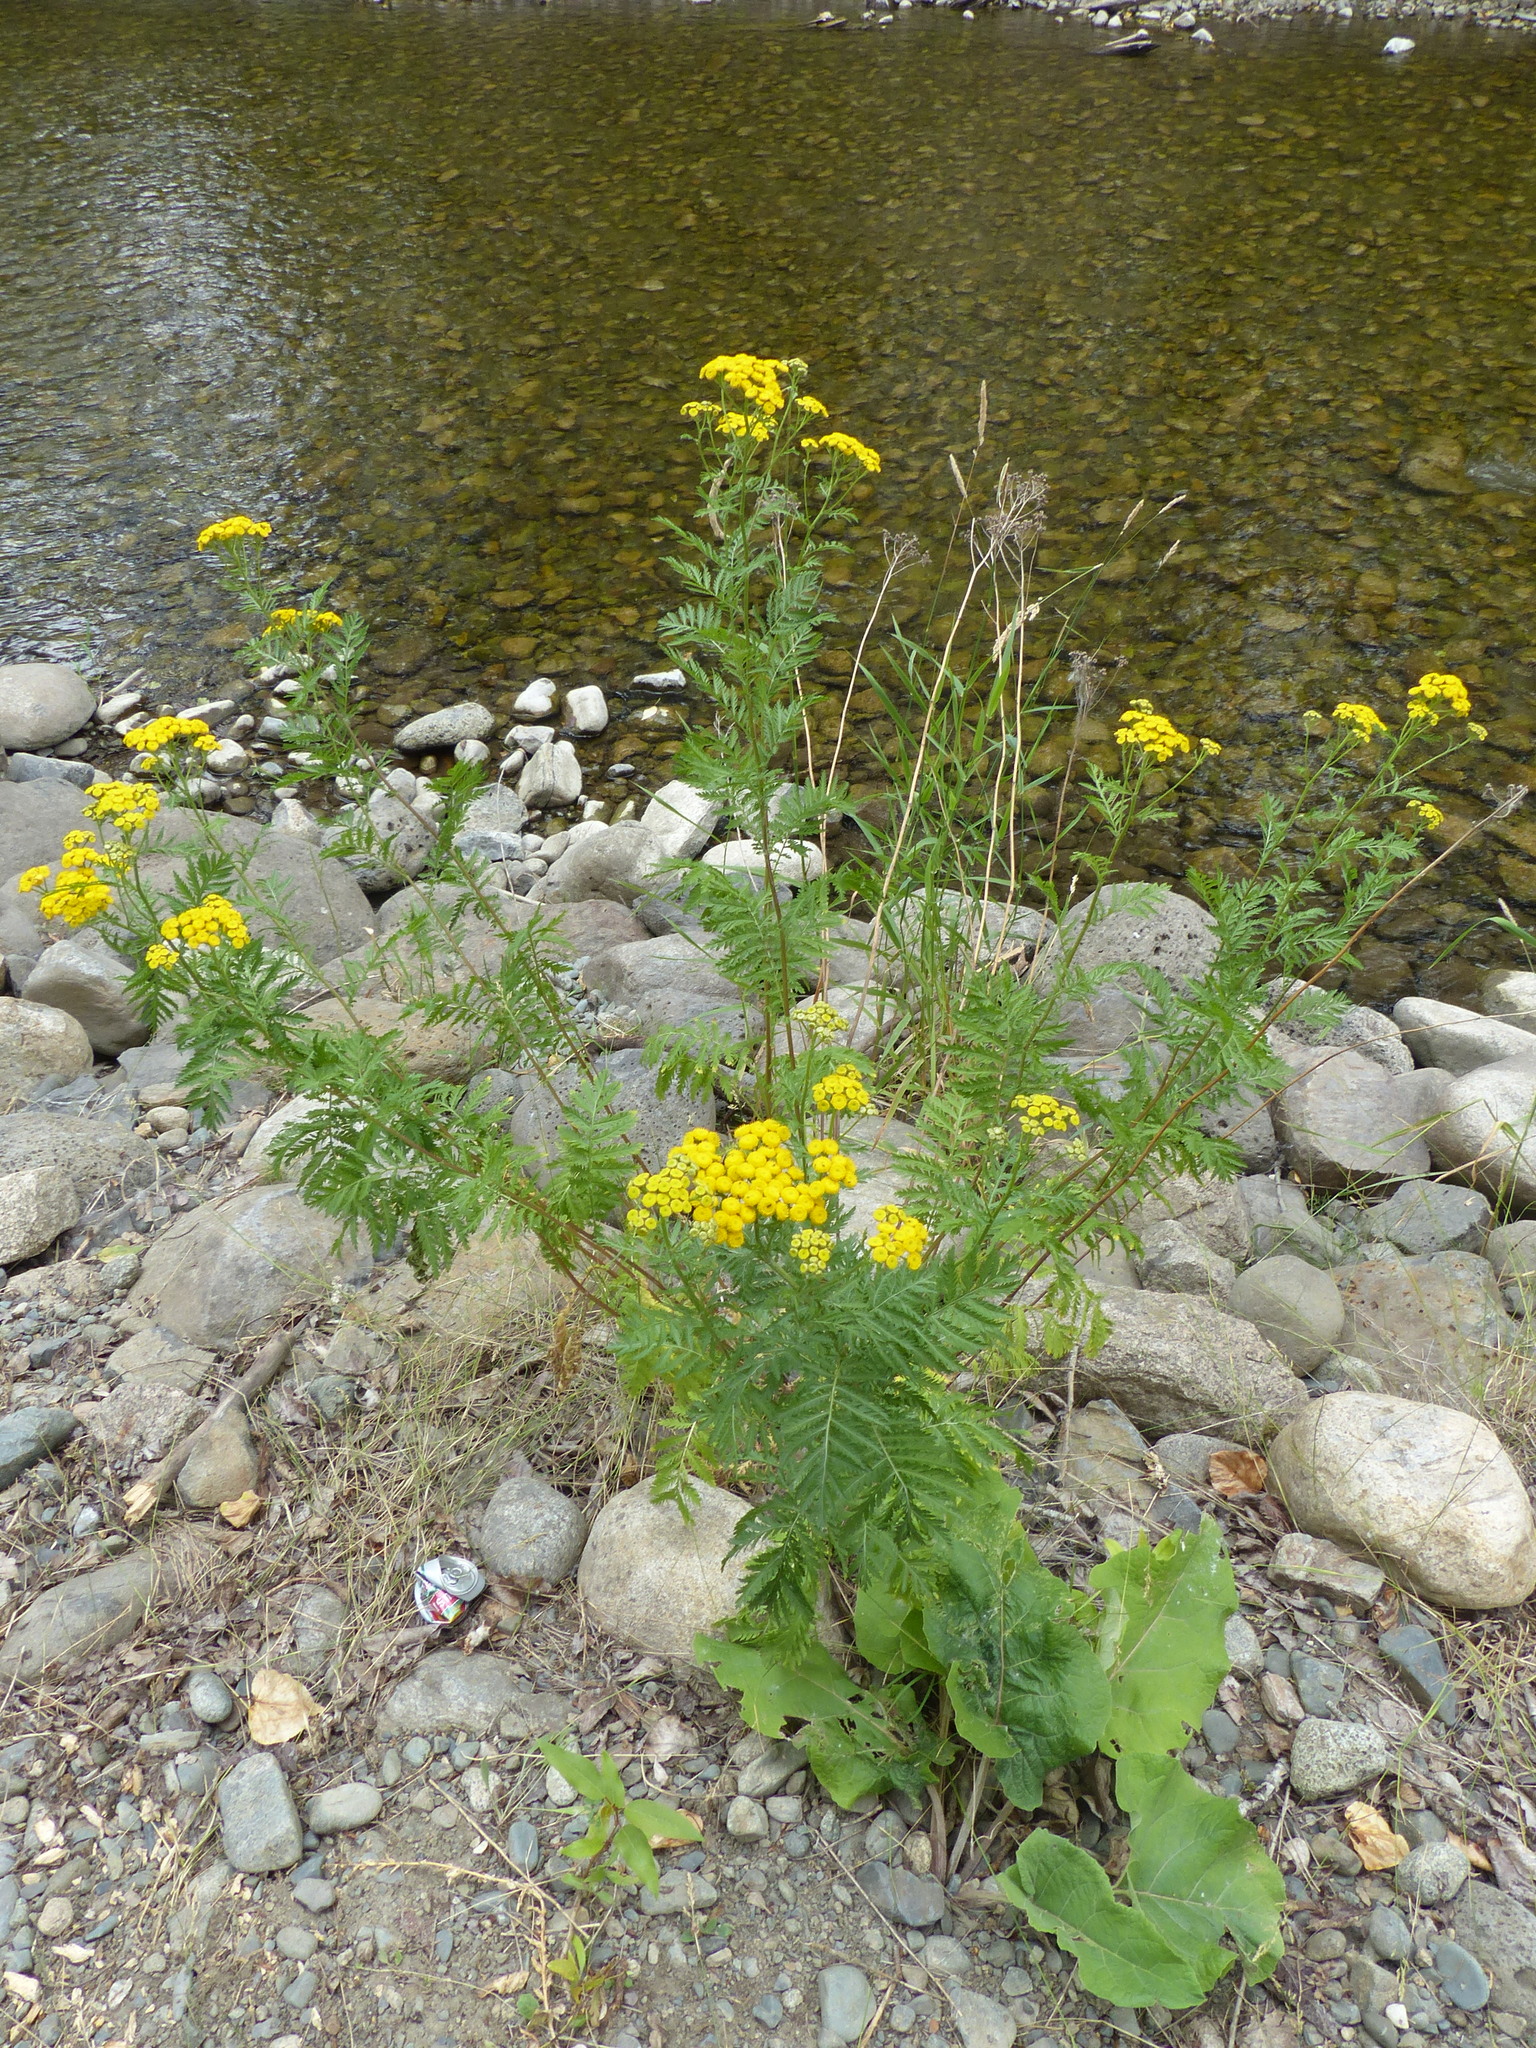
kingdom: Plantae
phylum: Tracheophyta
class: Magnoliopsida
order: Asterales
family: Asteraceae
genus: Tanacetum
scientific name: Tanacetum vulgare
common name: Common tansy
